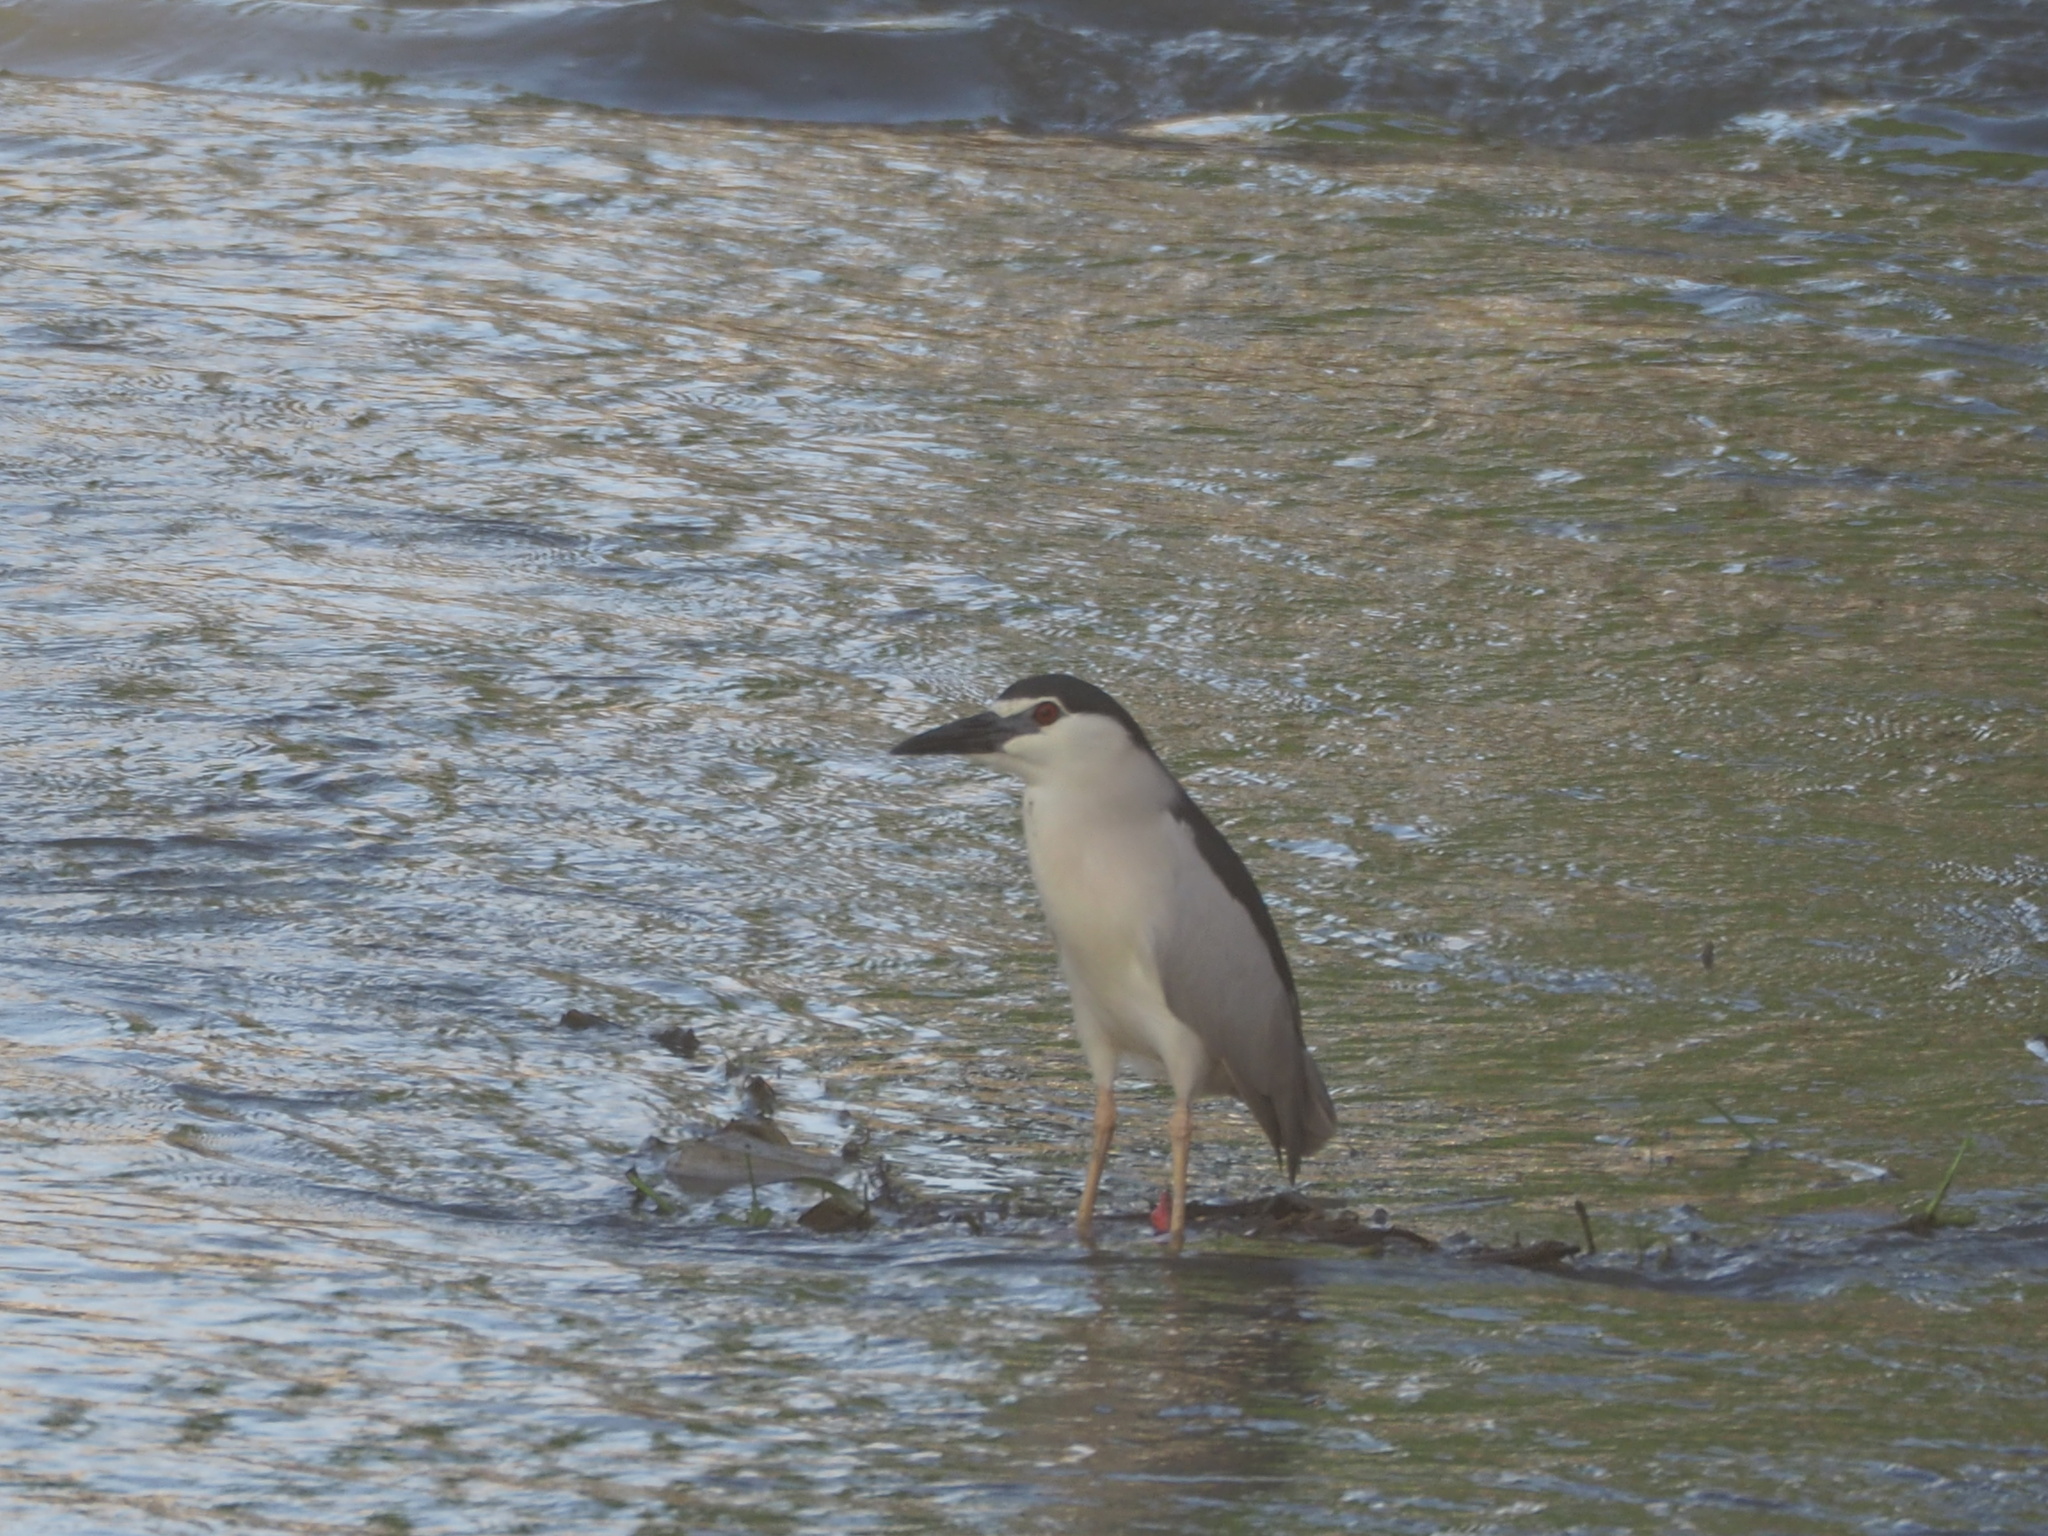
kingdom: Animalia
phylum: Chordata
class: Aves
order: Pelecaniformes
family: Ardeidae
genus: Nycticorax
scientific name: Nycticorax nycticorax
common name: Black-crowned night heron
